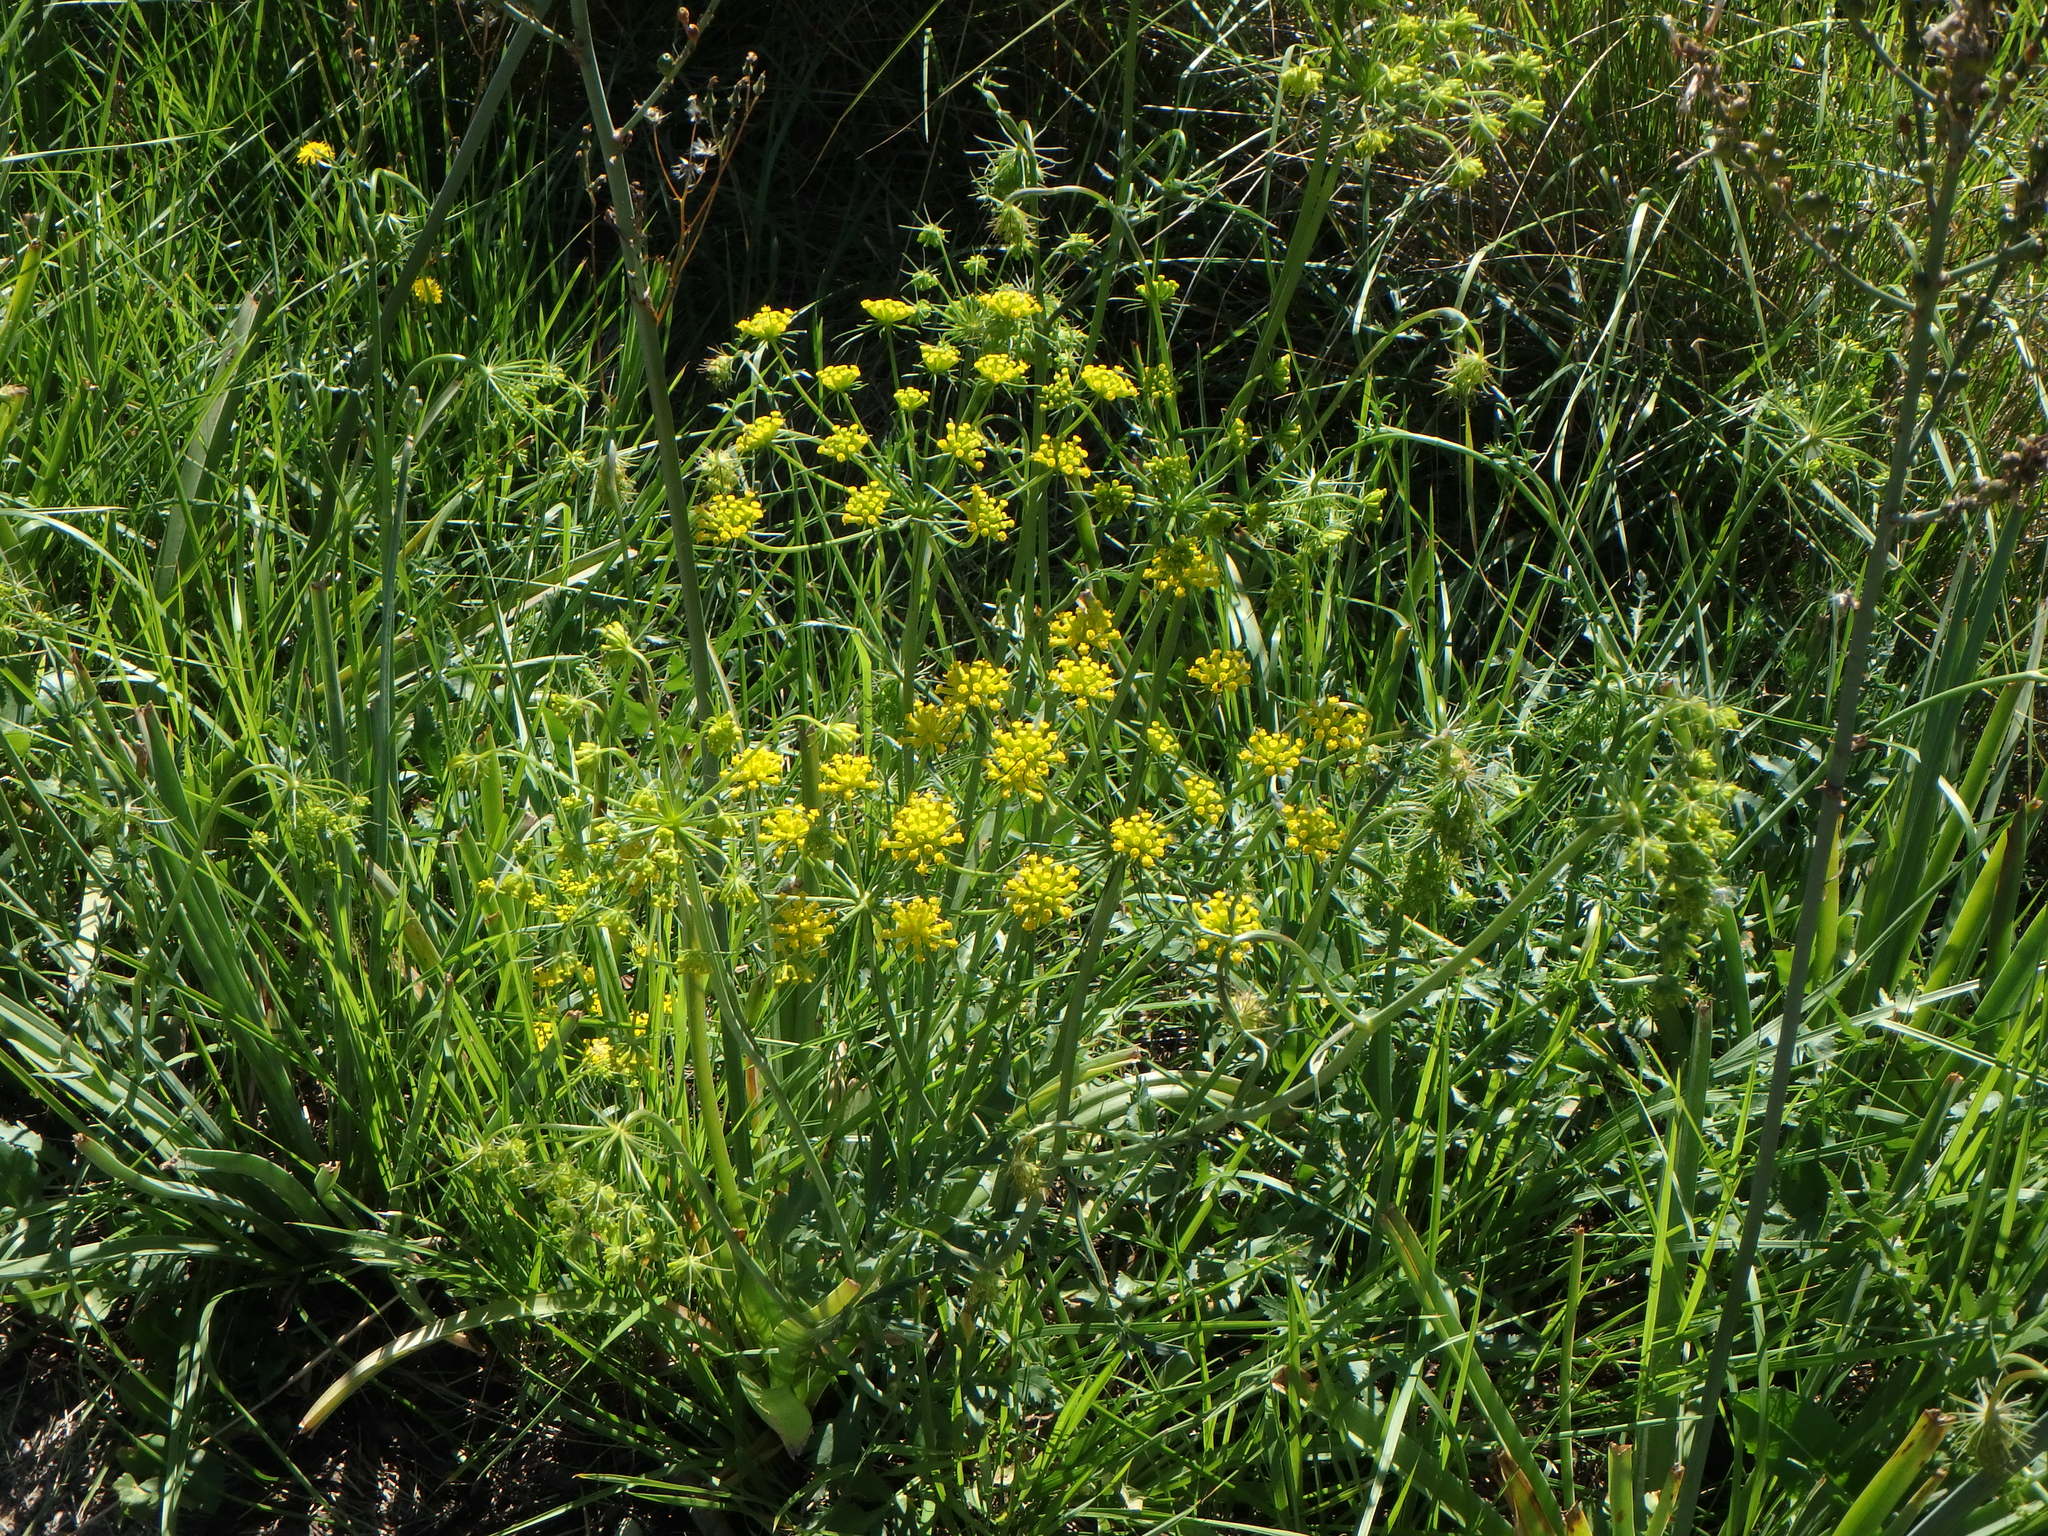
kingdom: Plantae
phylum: Tracheophyta
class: Magnoliopsida
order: Apiales
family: Apiaceae
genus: Kundmannia
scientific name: Kundmannia sicula
